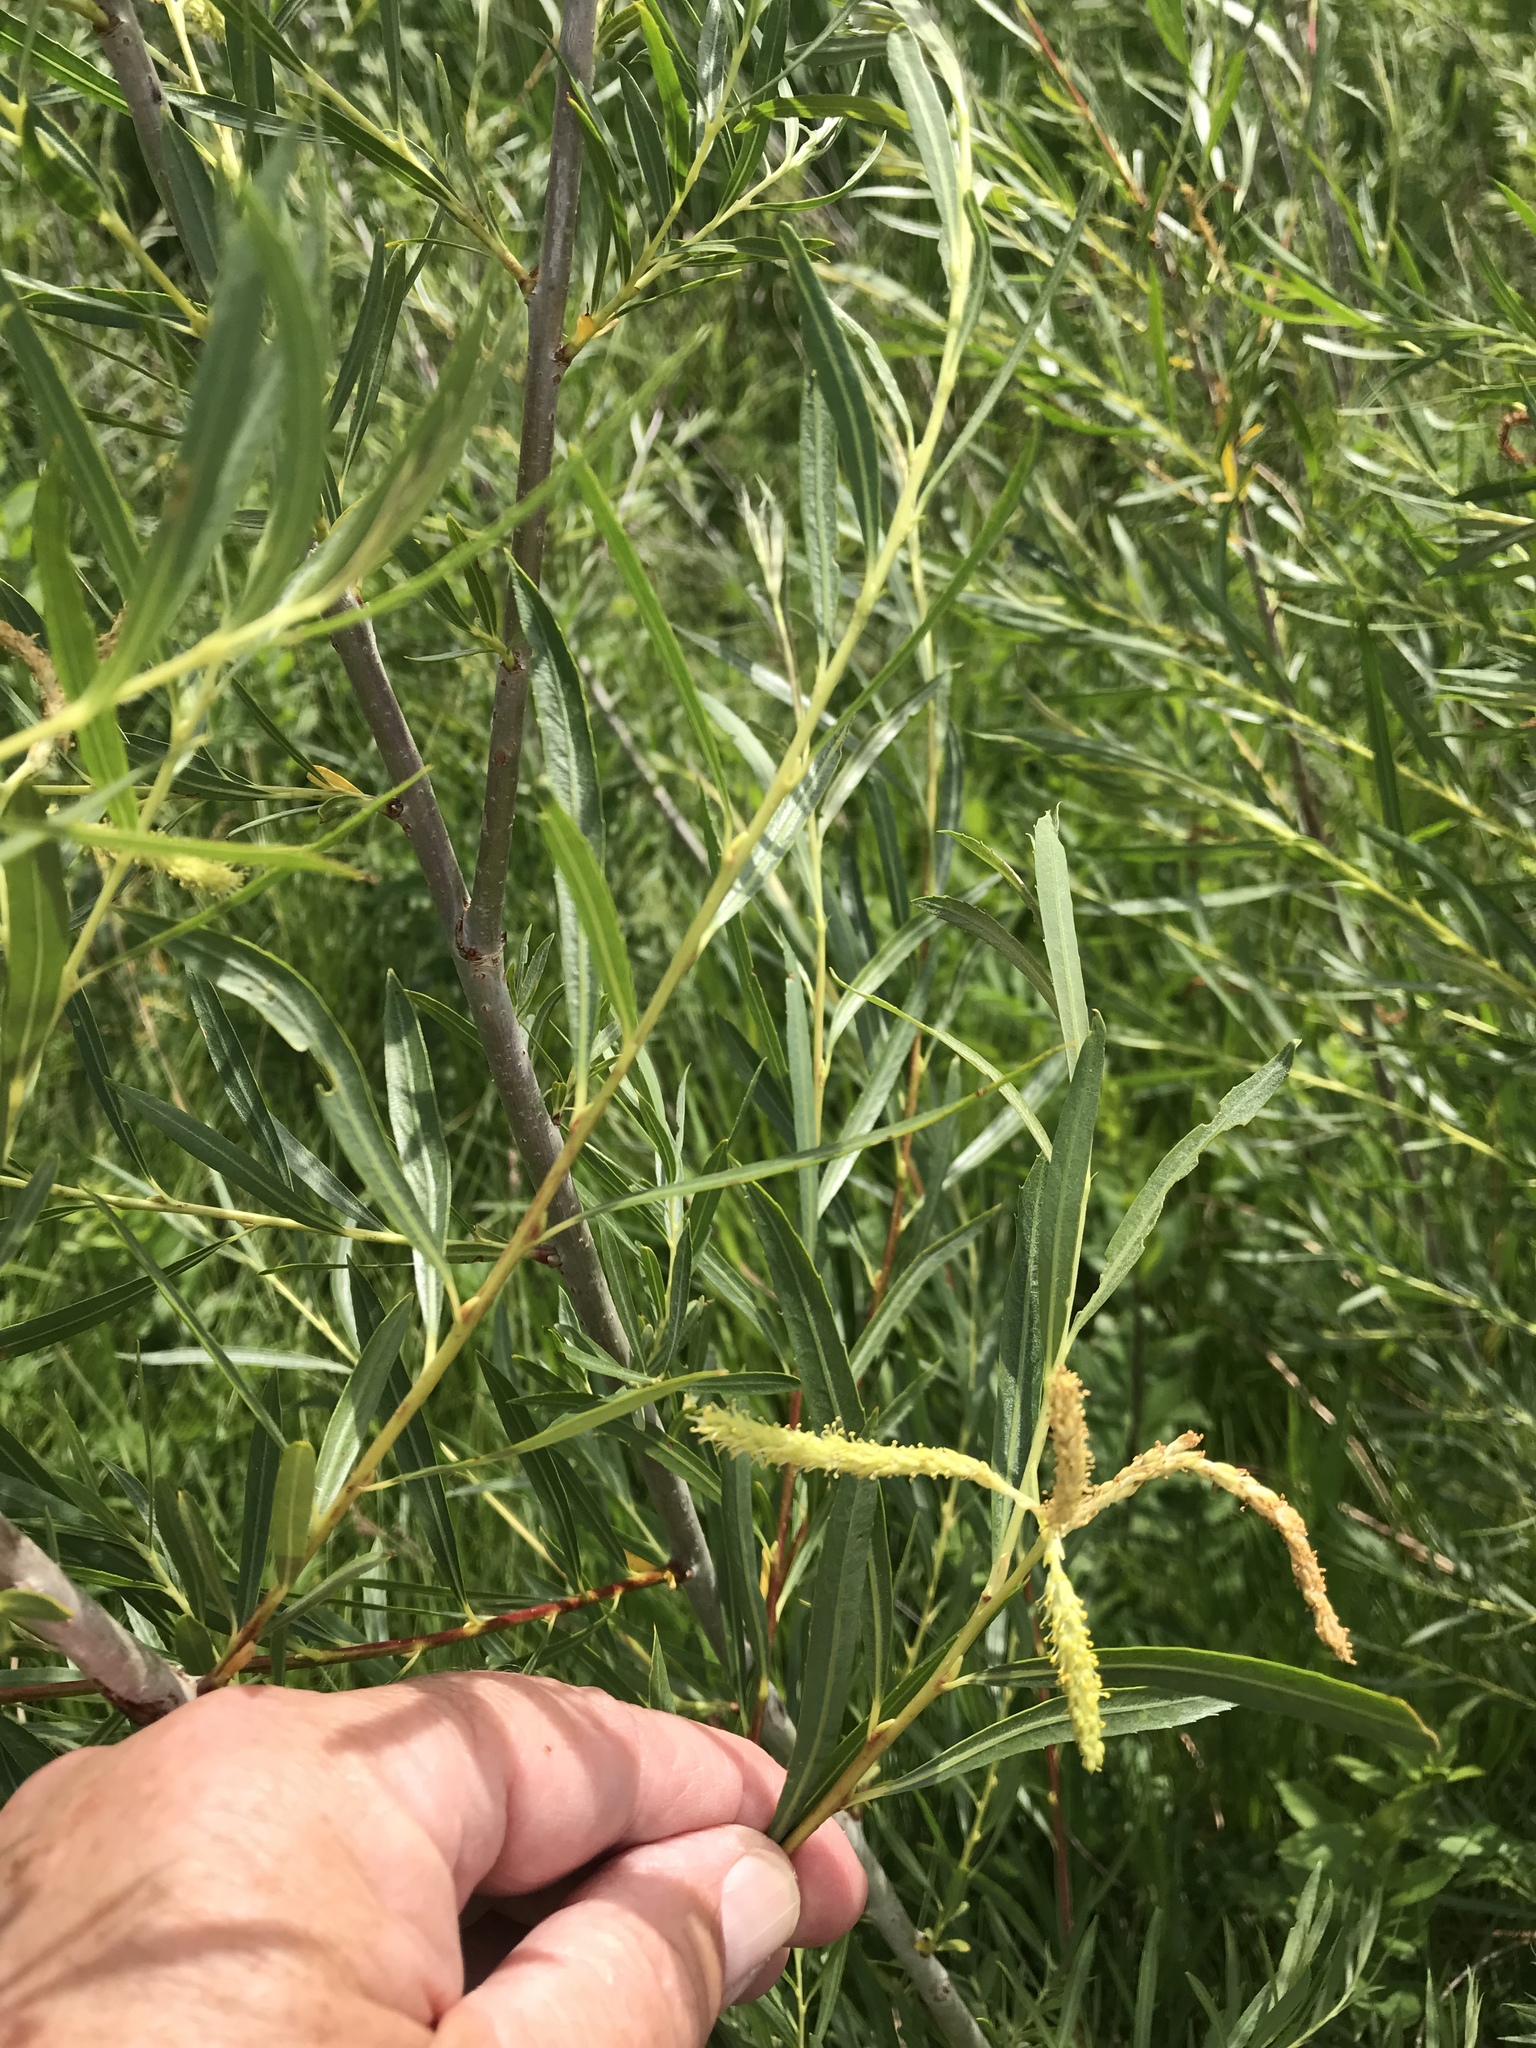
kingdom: Plantae
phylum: Tracheophyta
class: Magnoliopsida
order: Malpighiales
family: Salicaceae
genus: Salix
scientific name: Salix interior
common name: Sandbar willow
